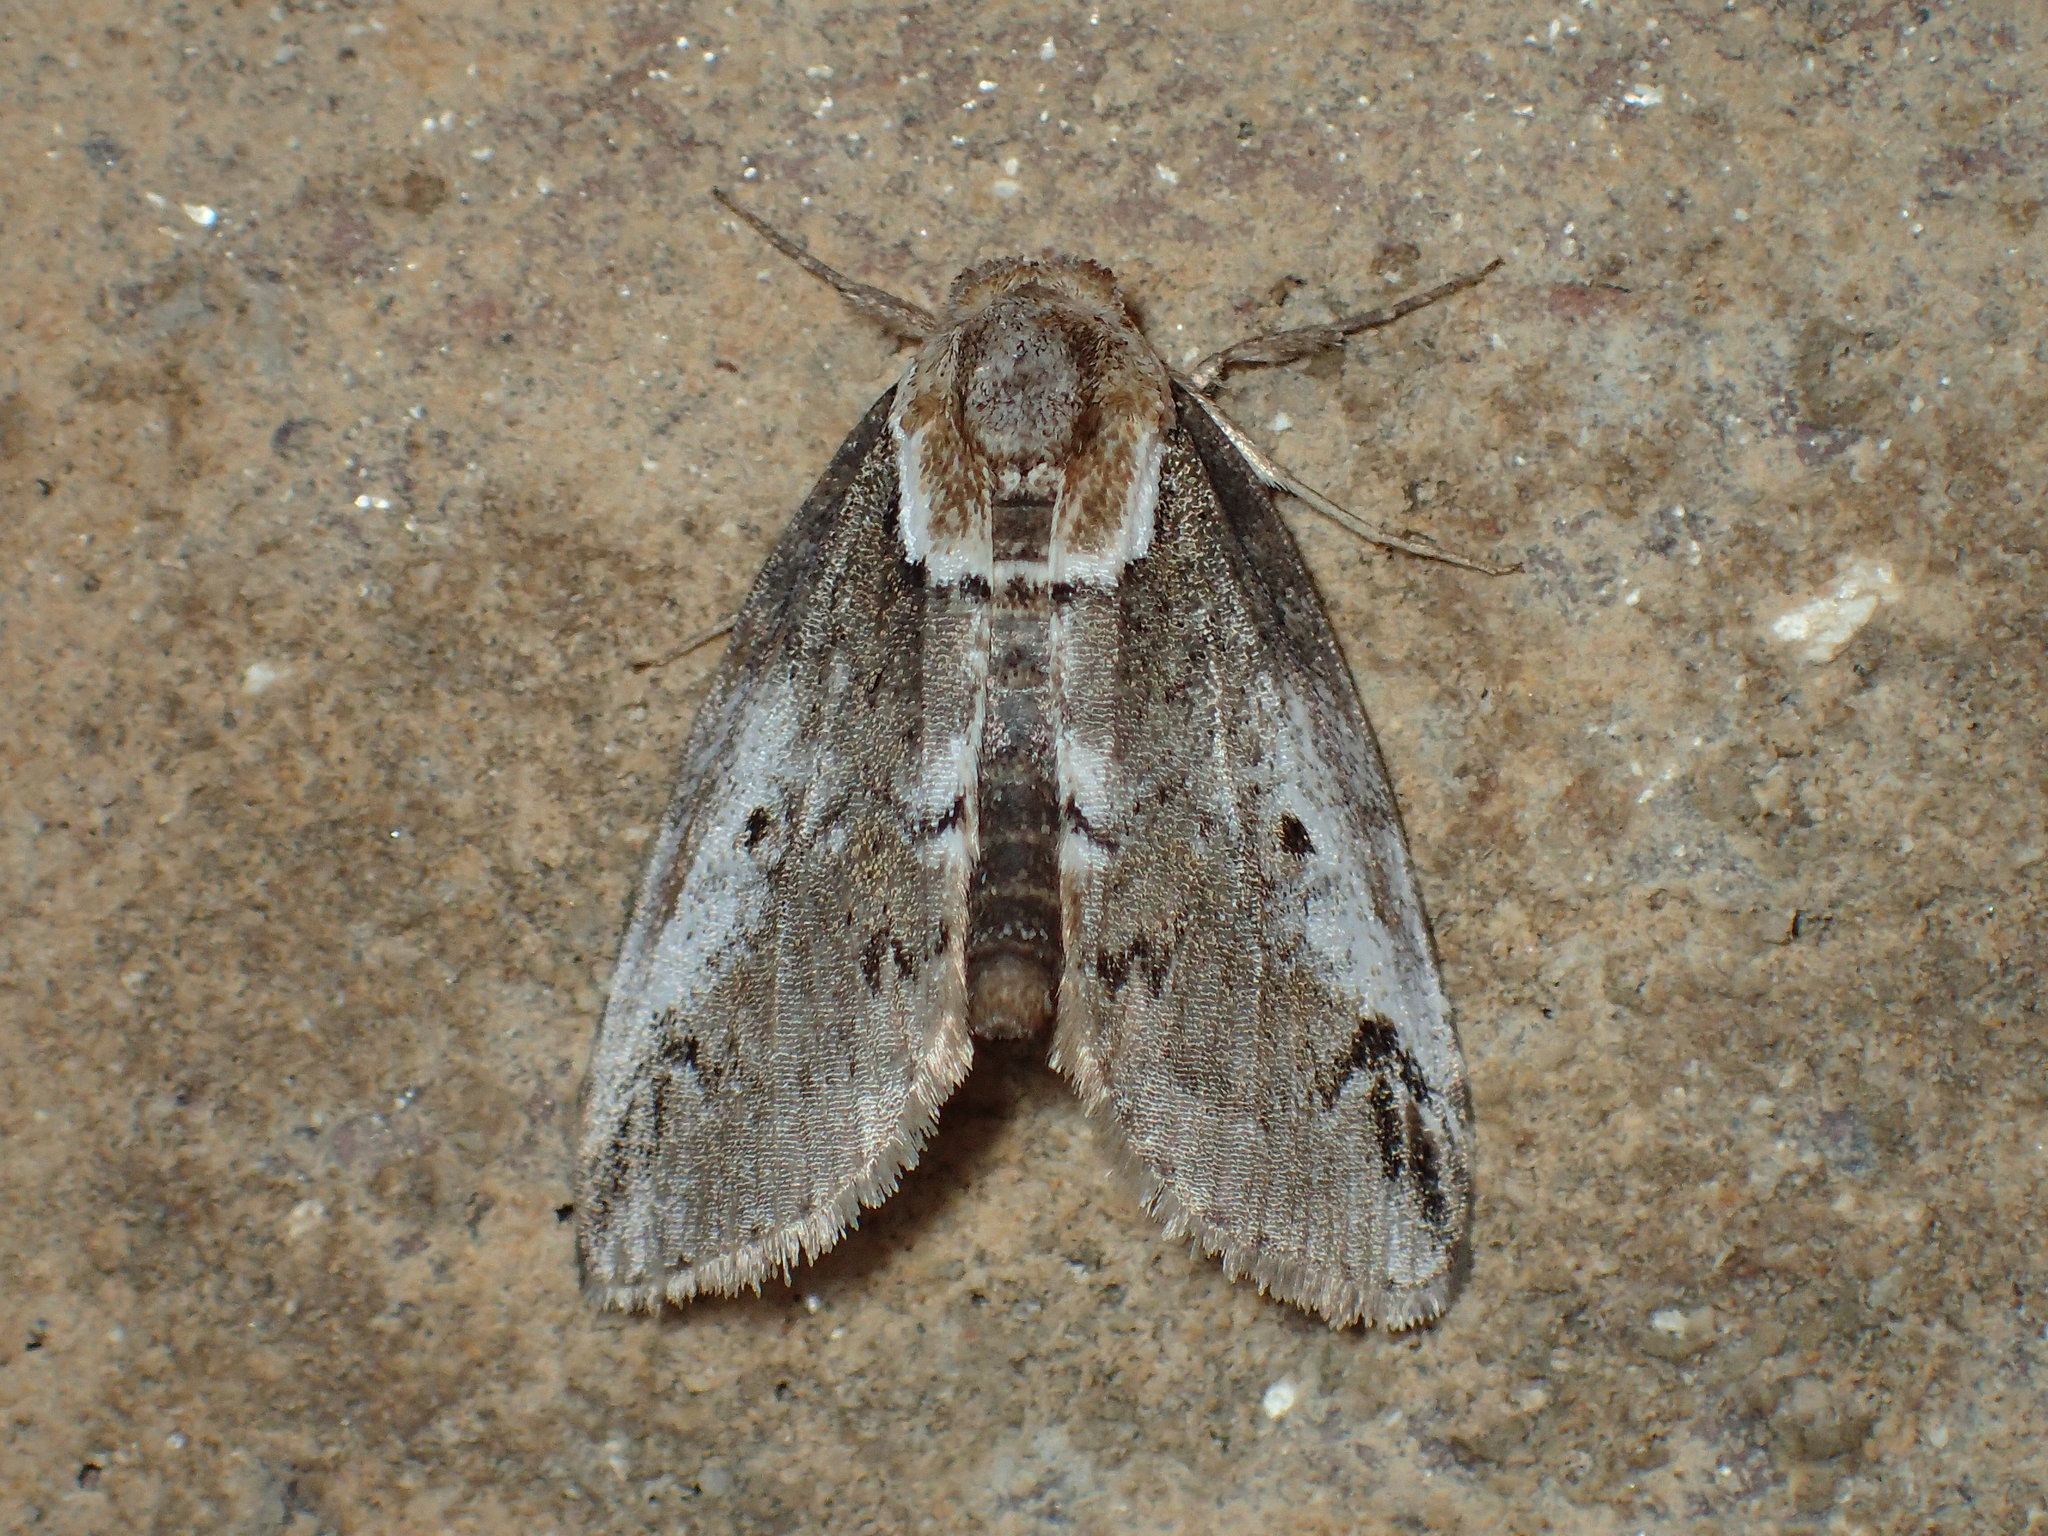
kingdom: Animalia
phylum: Arthropoda
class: Insecta
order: Lepidoptera
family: Nolidae
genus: Baileya
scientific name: Baileya ophthalmica
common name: Eyed baileya moth
